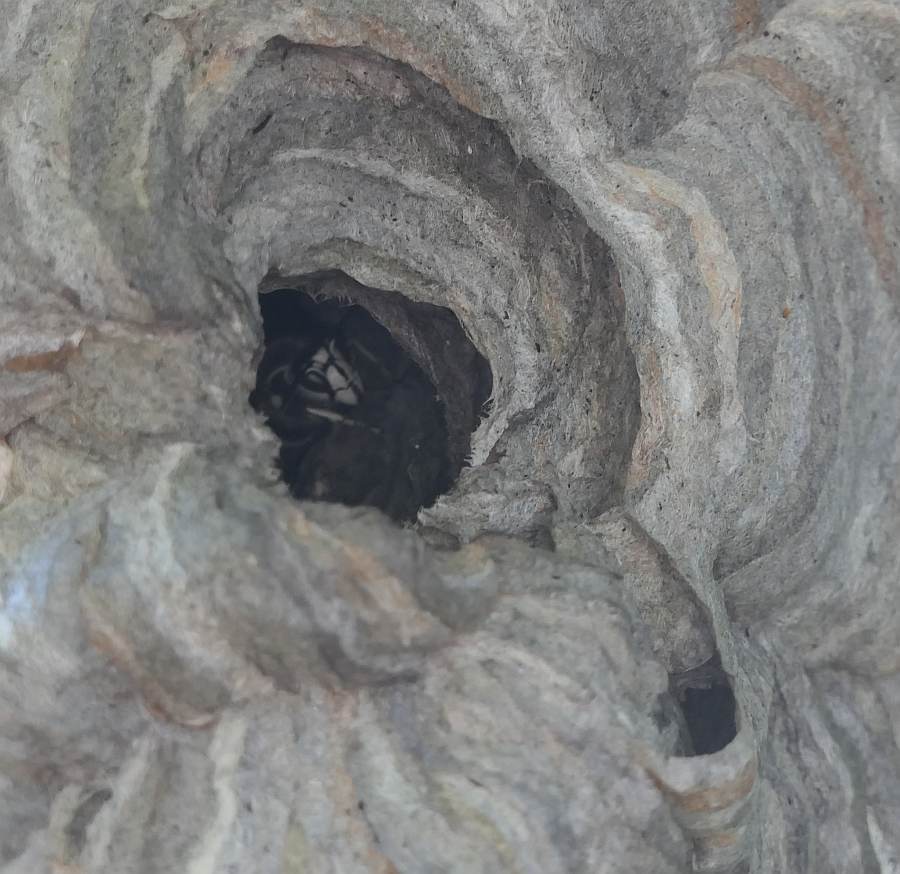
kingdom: Animalia
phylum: Arthropoda
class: Insecta
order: Hymenoptera
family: Vespidae
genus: Dolichovespula
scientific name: Dolichovespula maculata
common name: Bald-faced hornet
